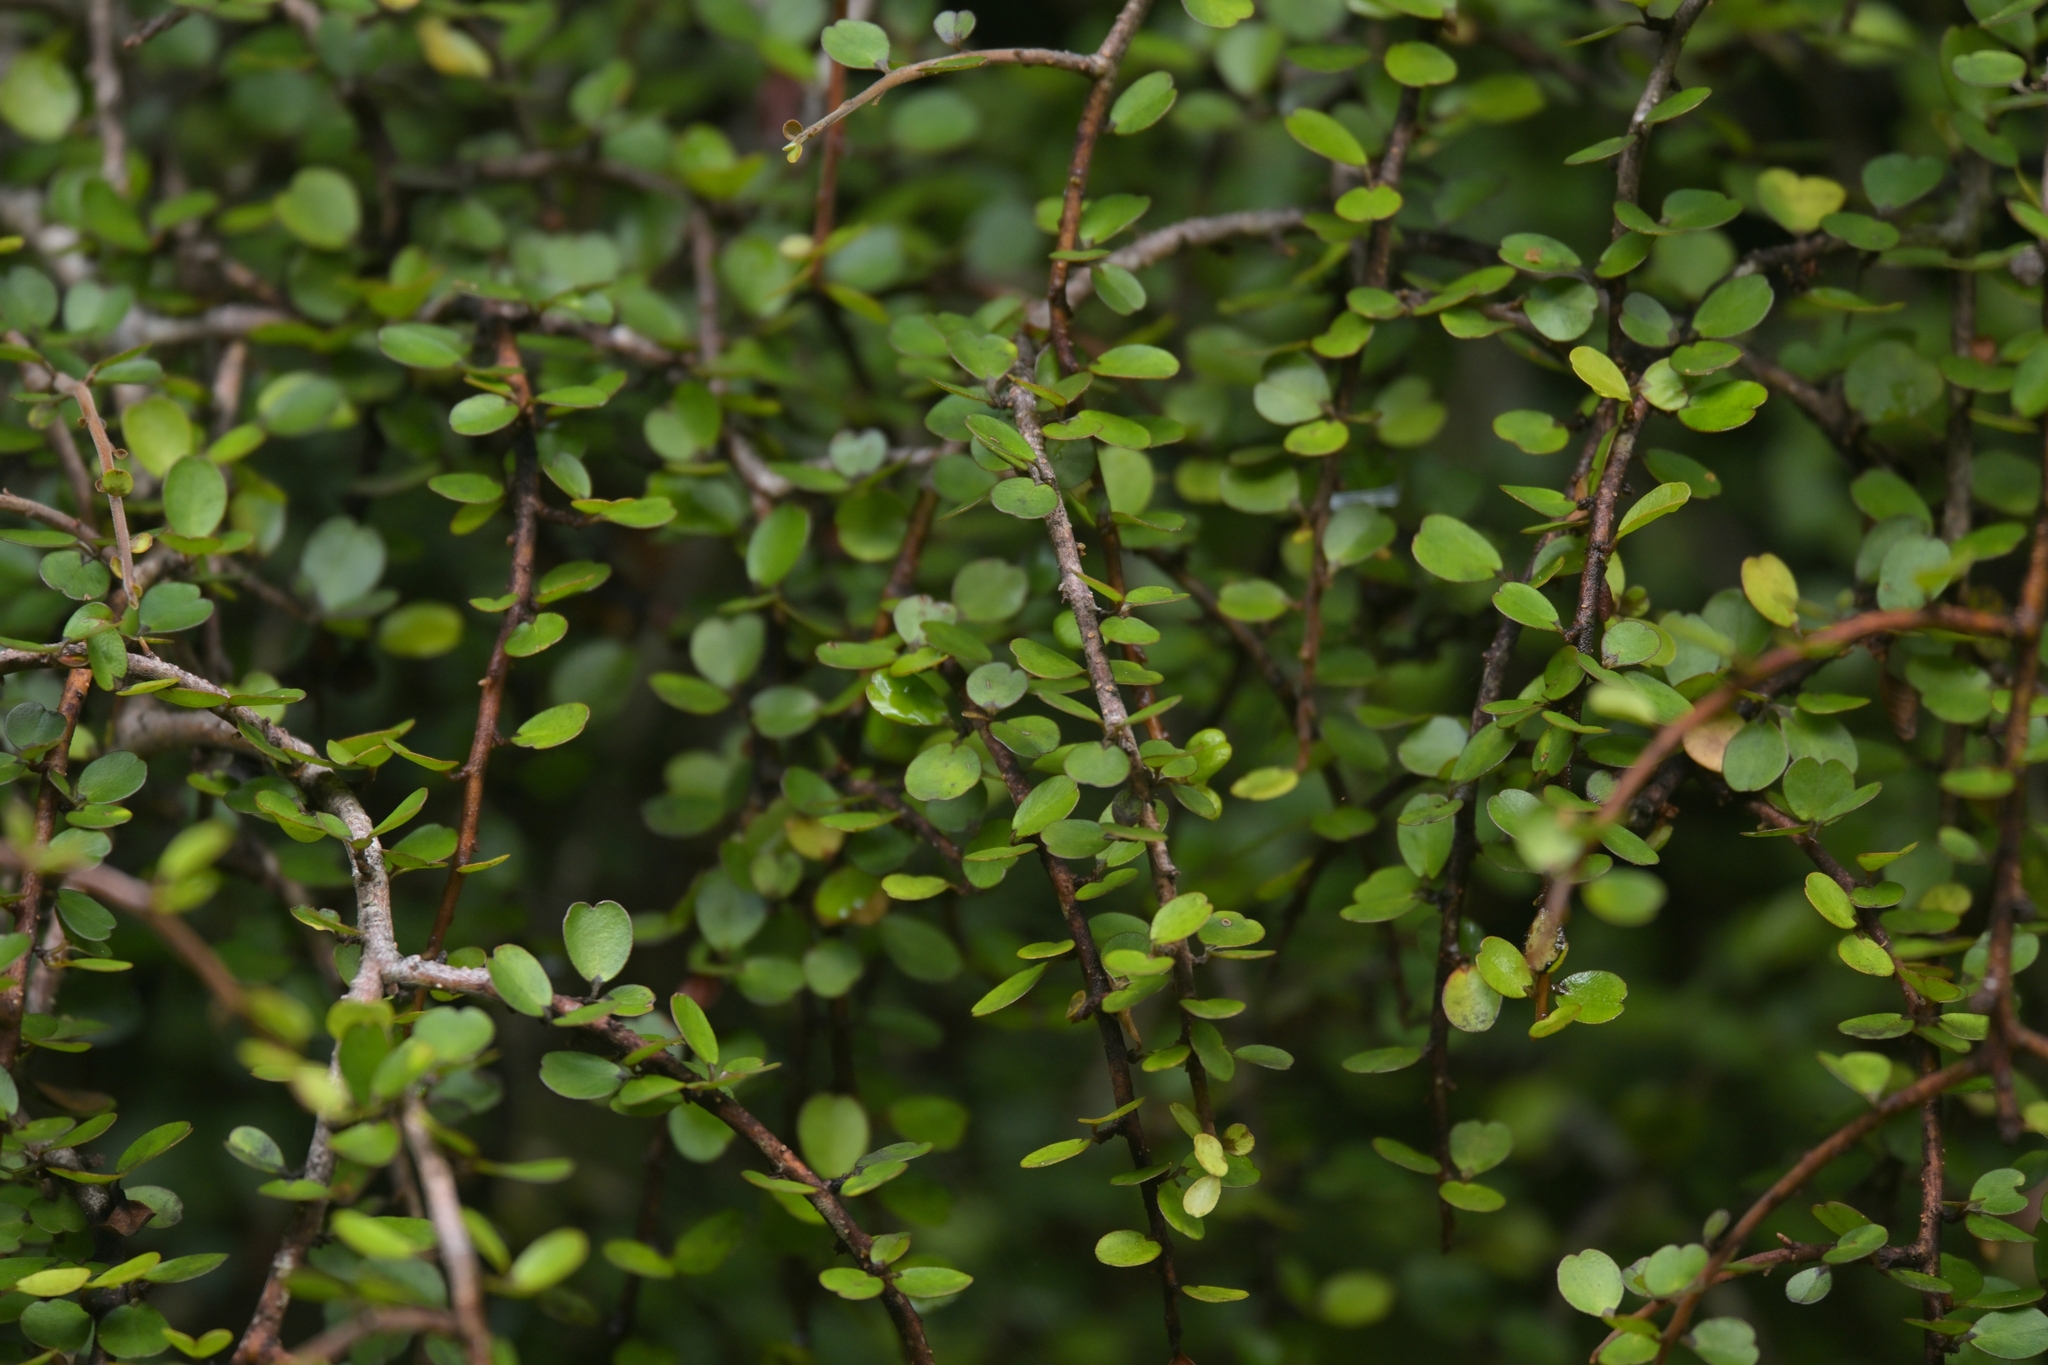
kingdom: Plantae
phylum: Tracheophyta
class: Magnoliopsida
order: Ericales
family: Primulaceae
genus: Myrsine
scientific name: Myrsine divaricata
